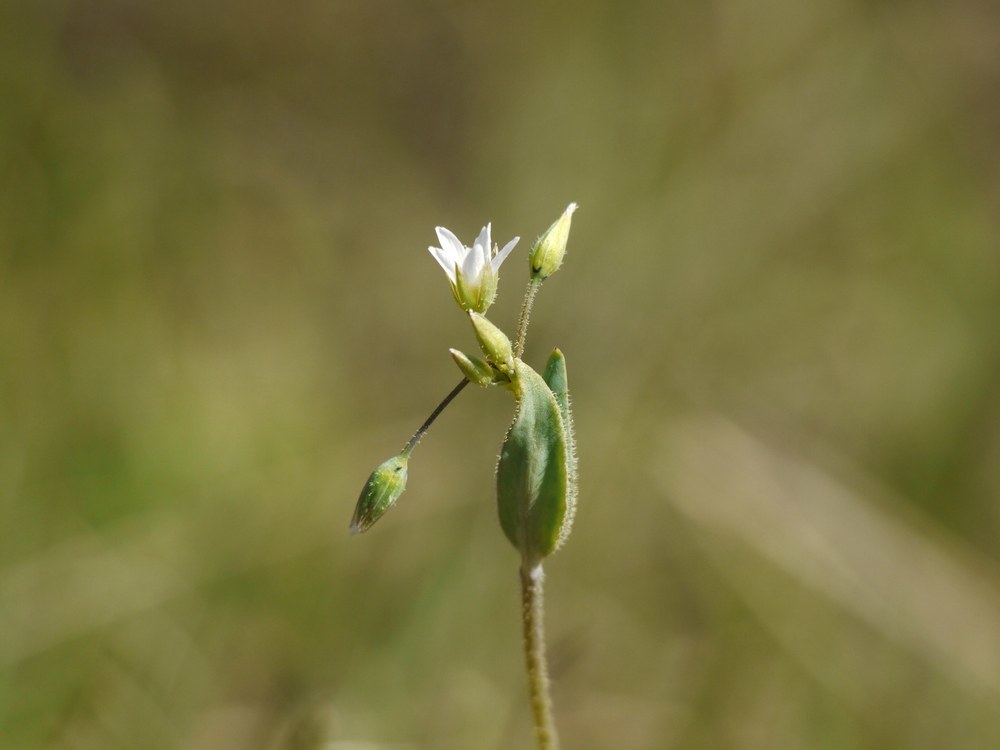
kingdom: Plantae
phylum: Tracheophyta
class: Magnoliopsida
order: Caryophyllales
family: Caryophyllaceae
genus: Holosteum
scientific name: Holosteum umbellatum
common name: Jagged chickweed
